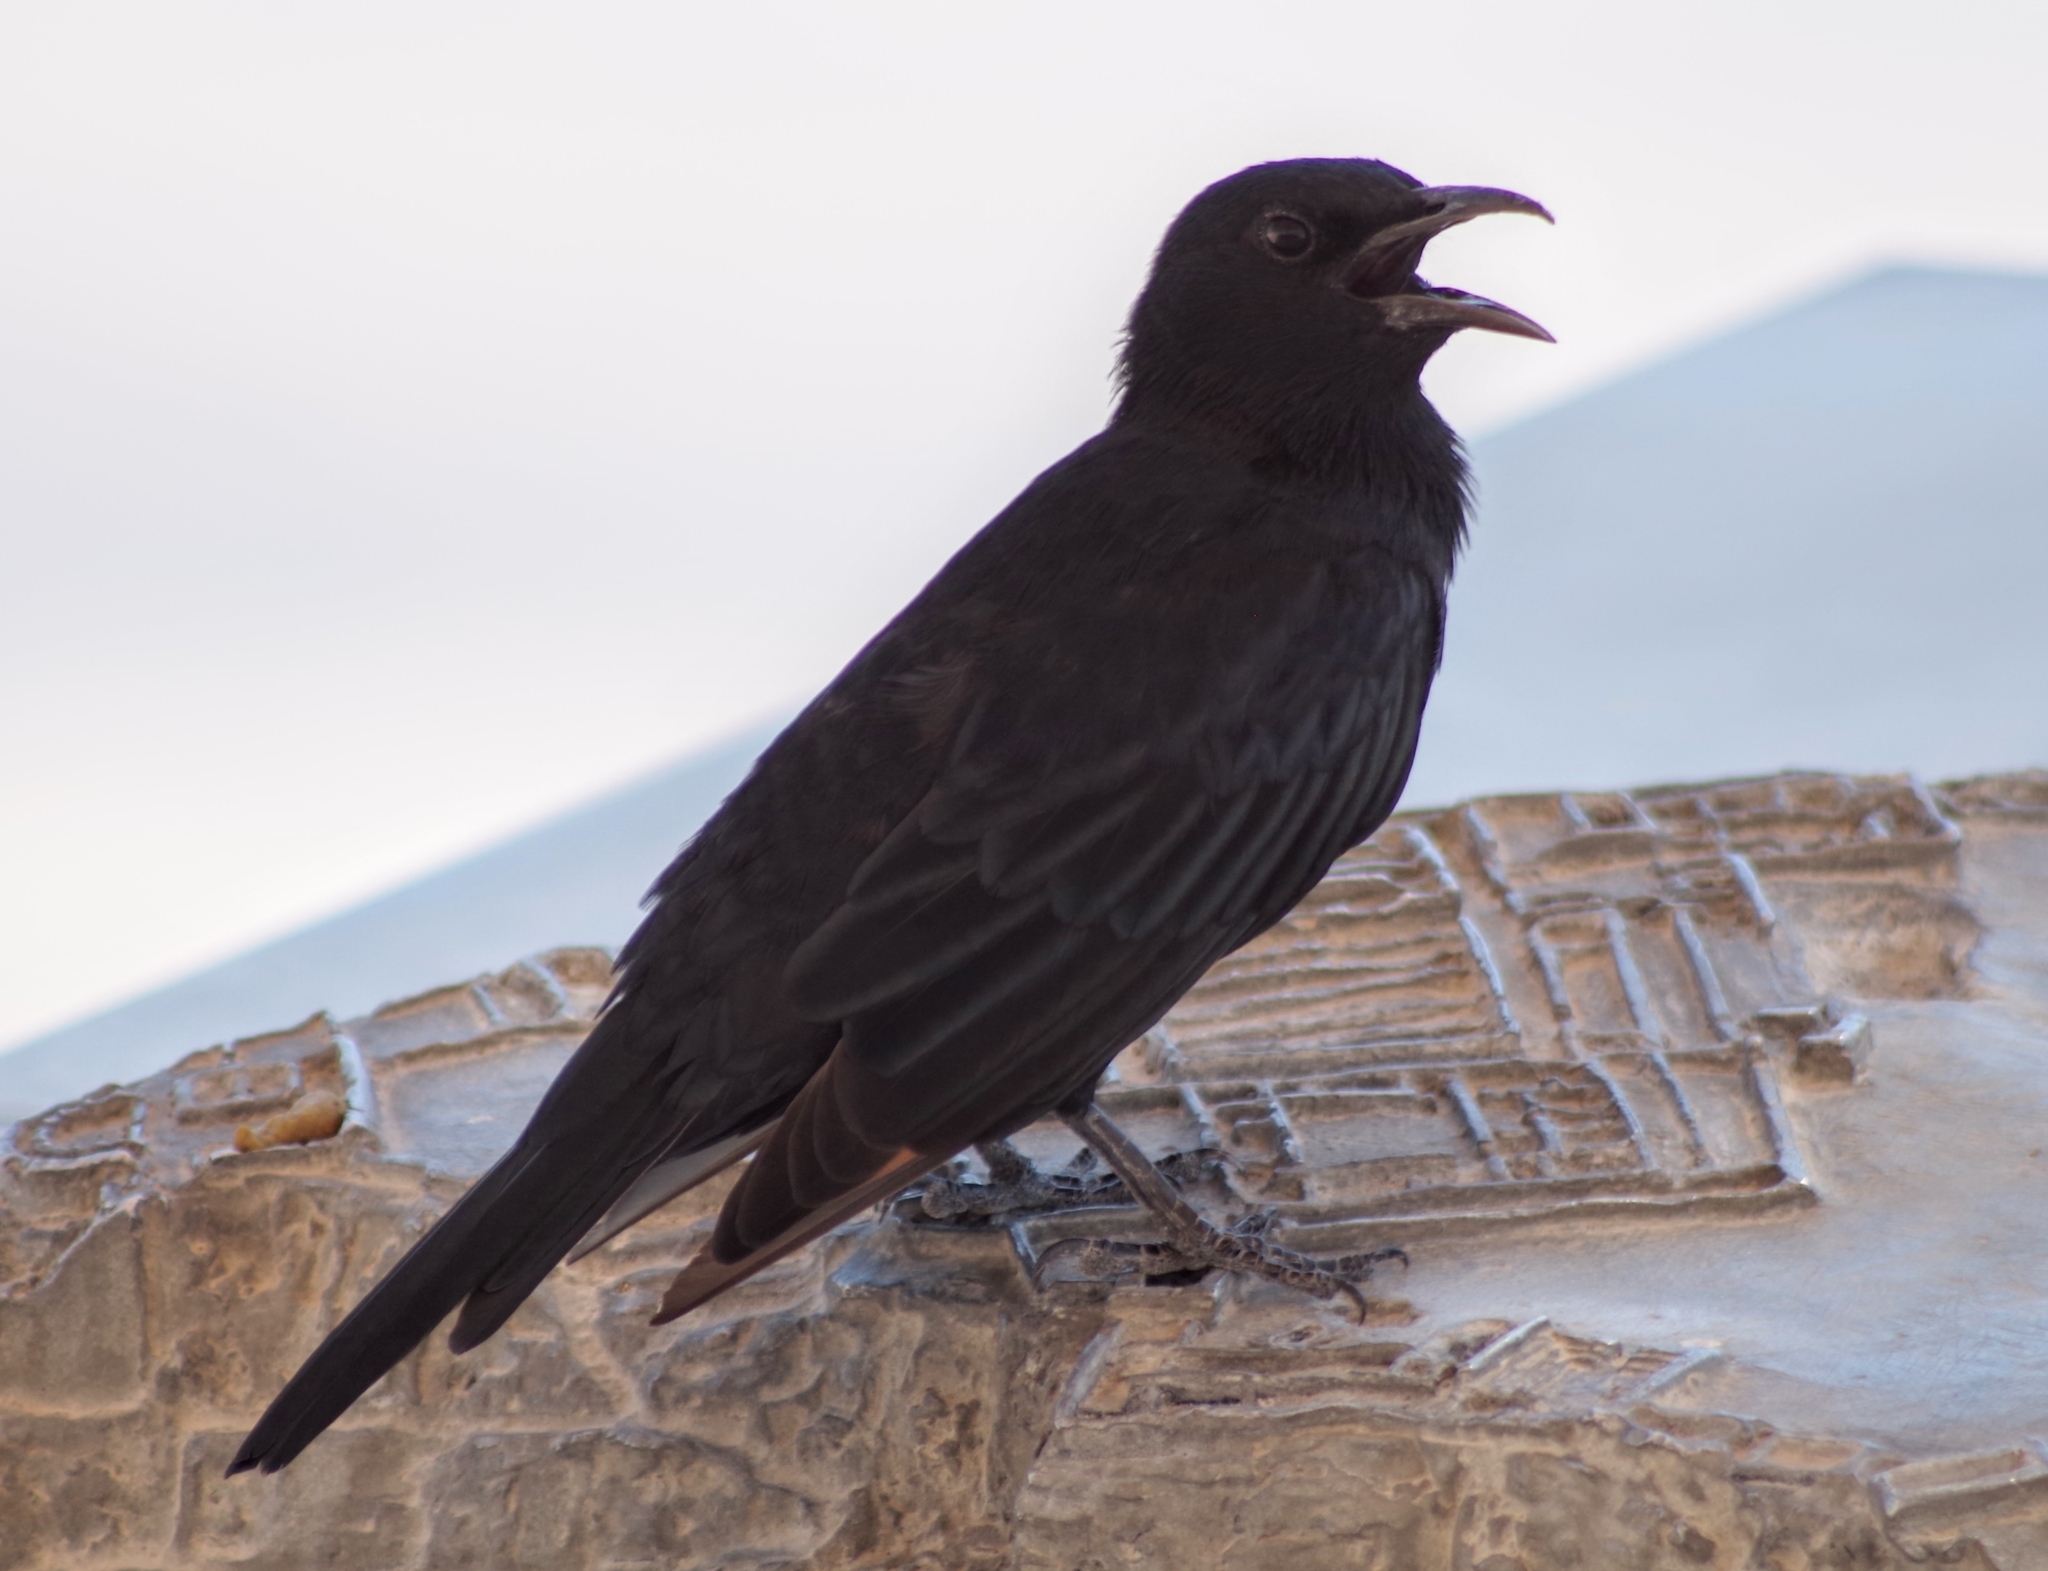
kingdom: Animalia
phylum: Chordata
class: Aves
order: Passeriformes
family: Sturnidae
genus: Onychognathus
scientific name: Onychognathus tristramii
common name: Tristram's starling
